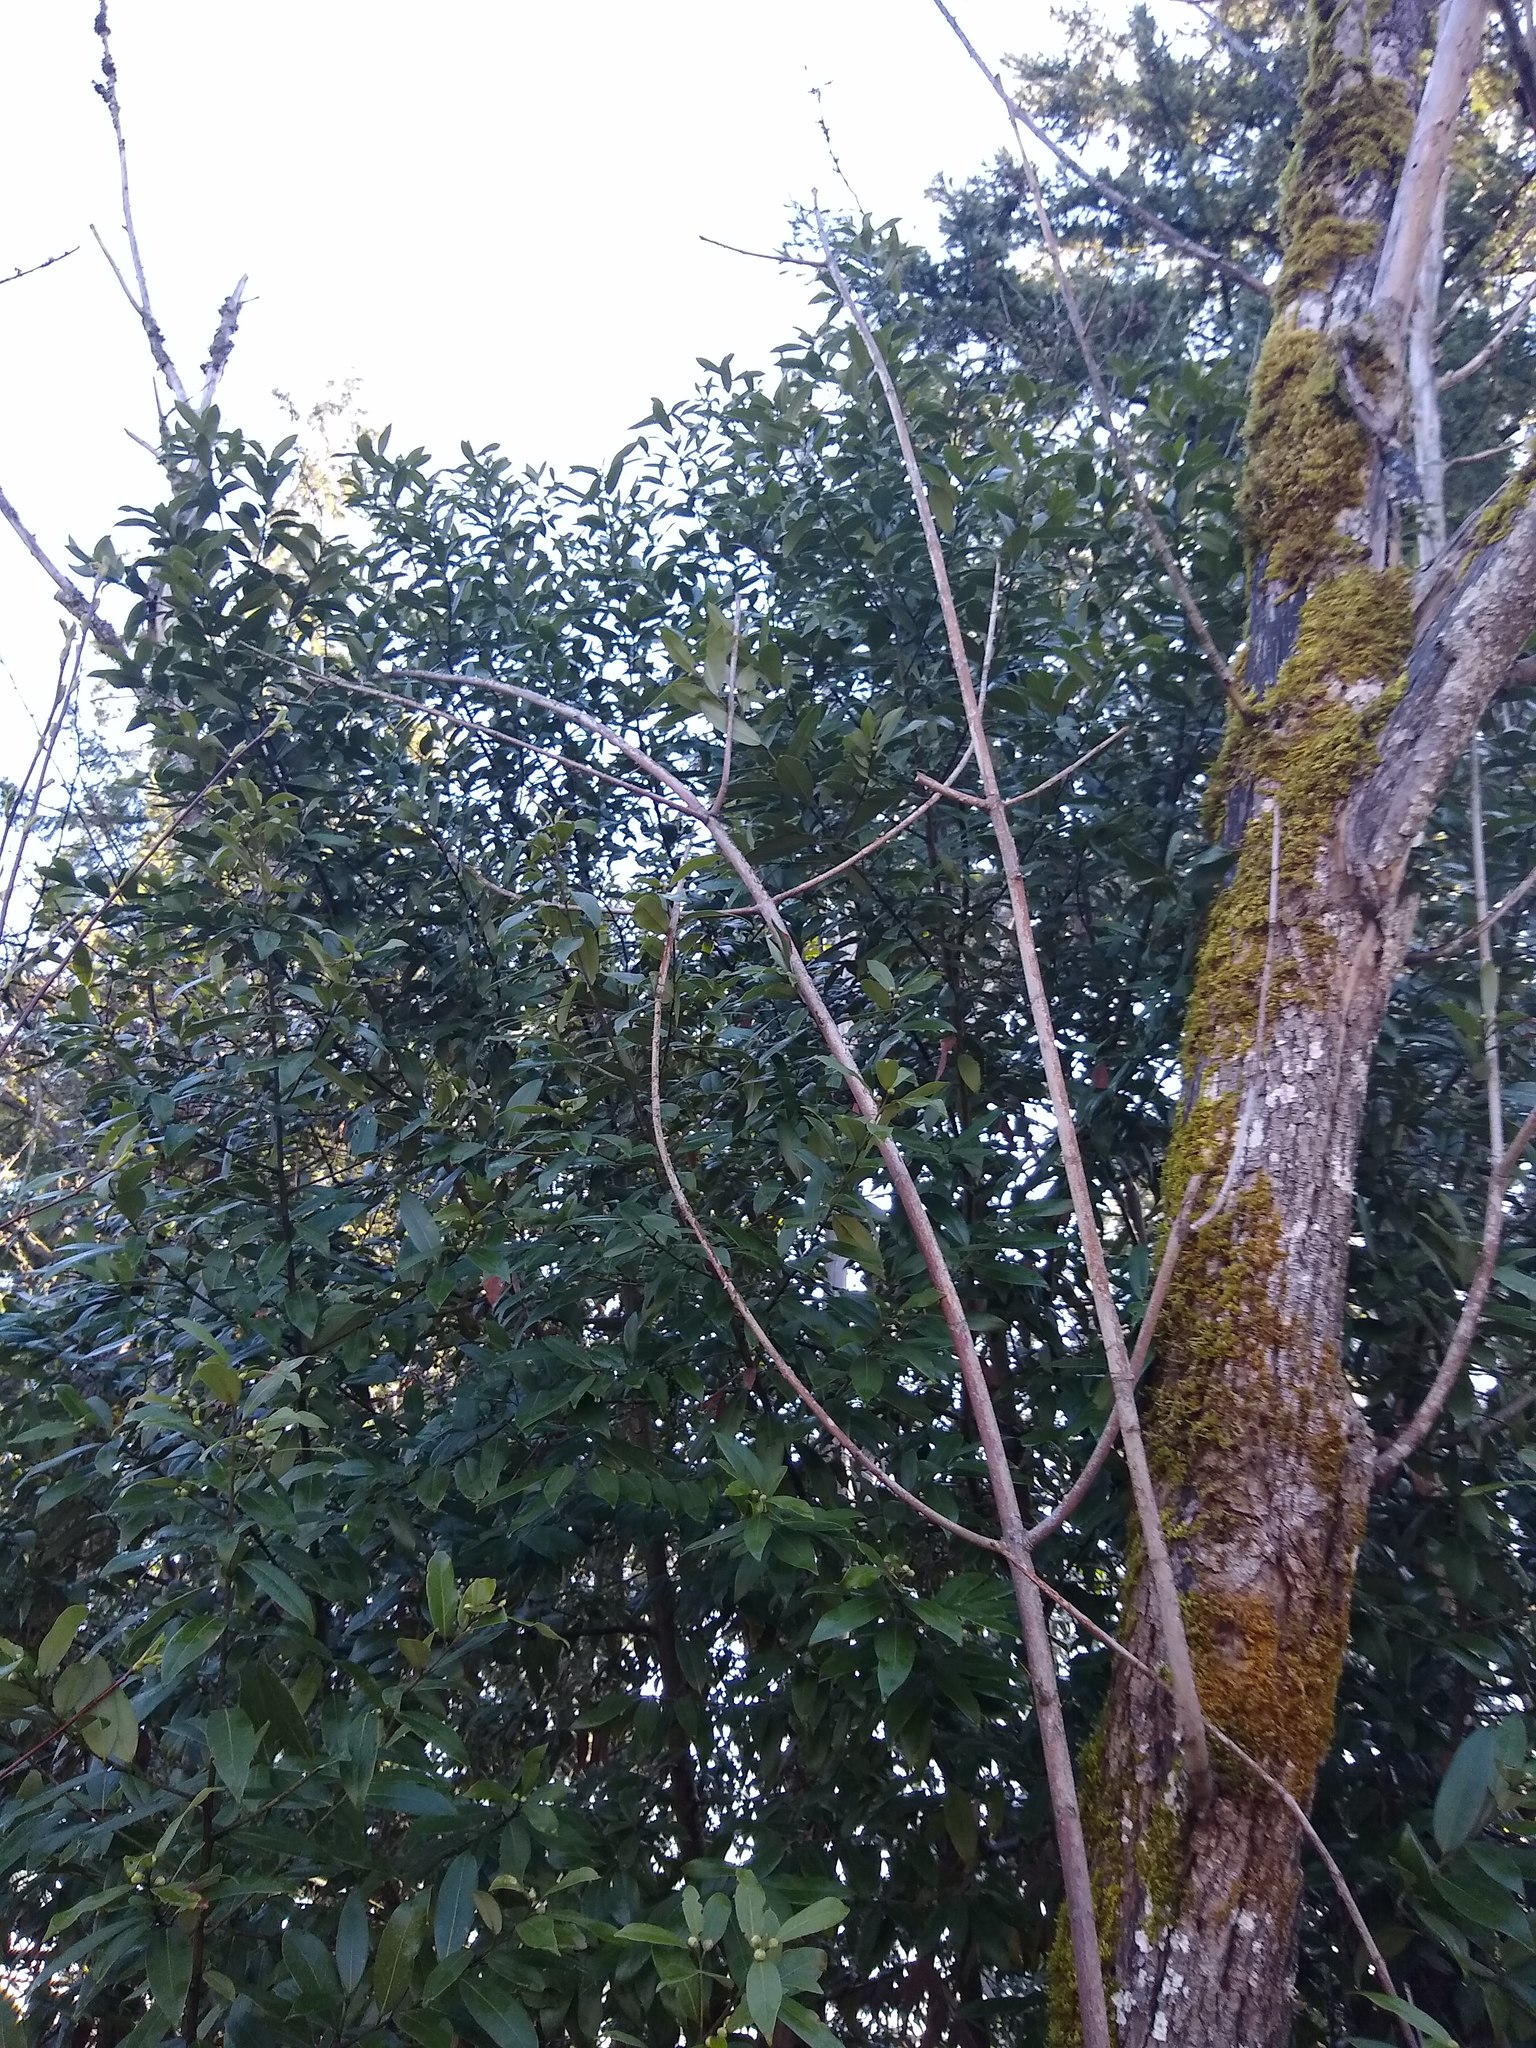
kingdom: Plantae
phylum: Tracheophyta
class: Magnoliopsida
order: Laurales
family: Lauraceae
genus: Umbellularia
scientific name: Umbellularia californica
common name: California bay
